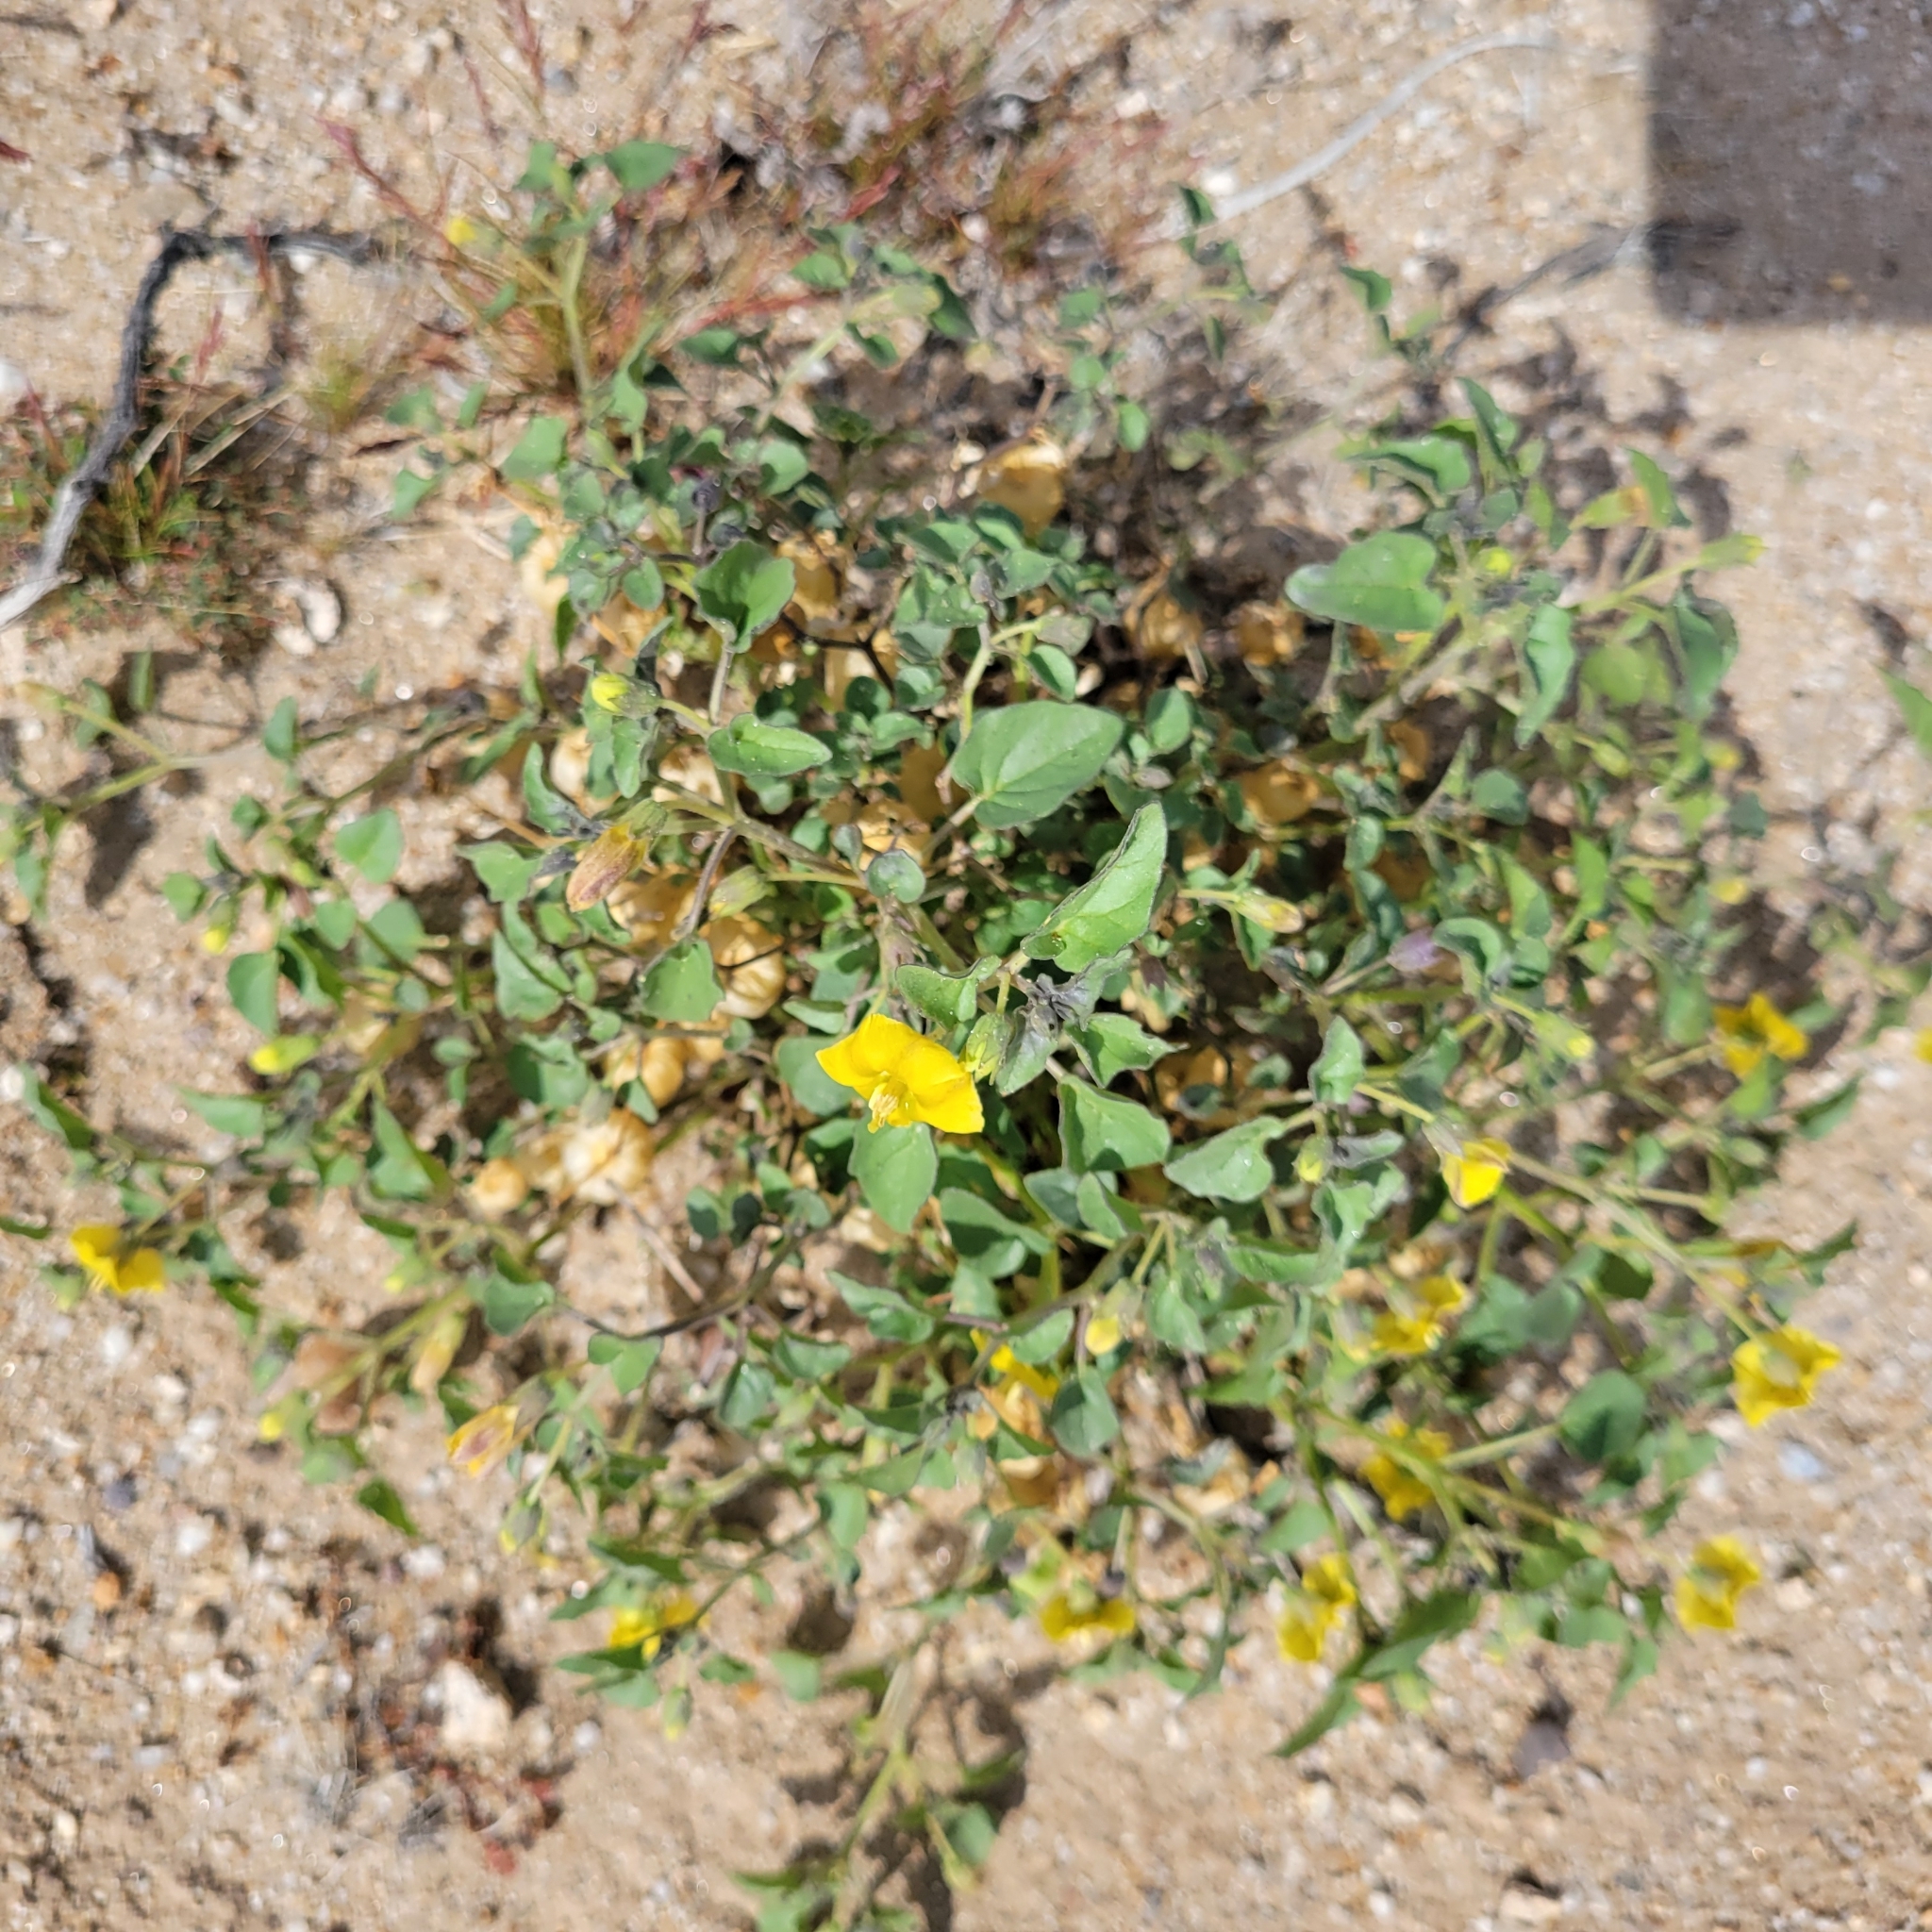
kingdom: Plantae
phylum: Tracheophyta
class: Magnoliopsida
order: Solanales
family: Solanaceae
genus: Physalis
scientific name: Physalis crassifolia
